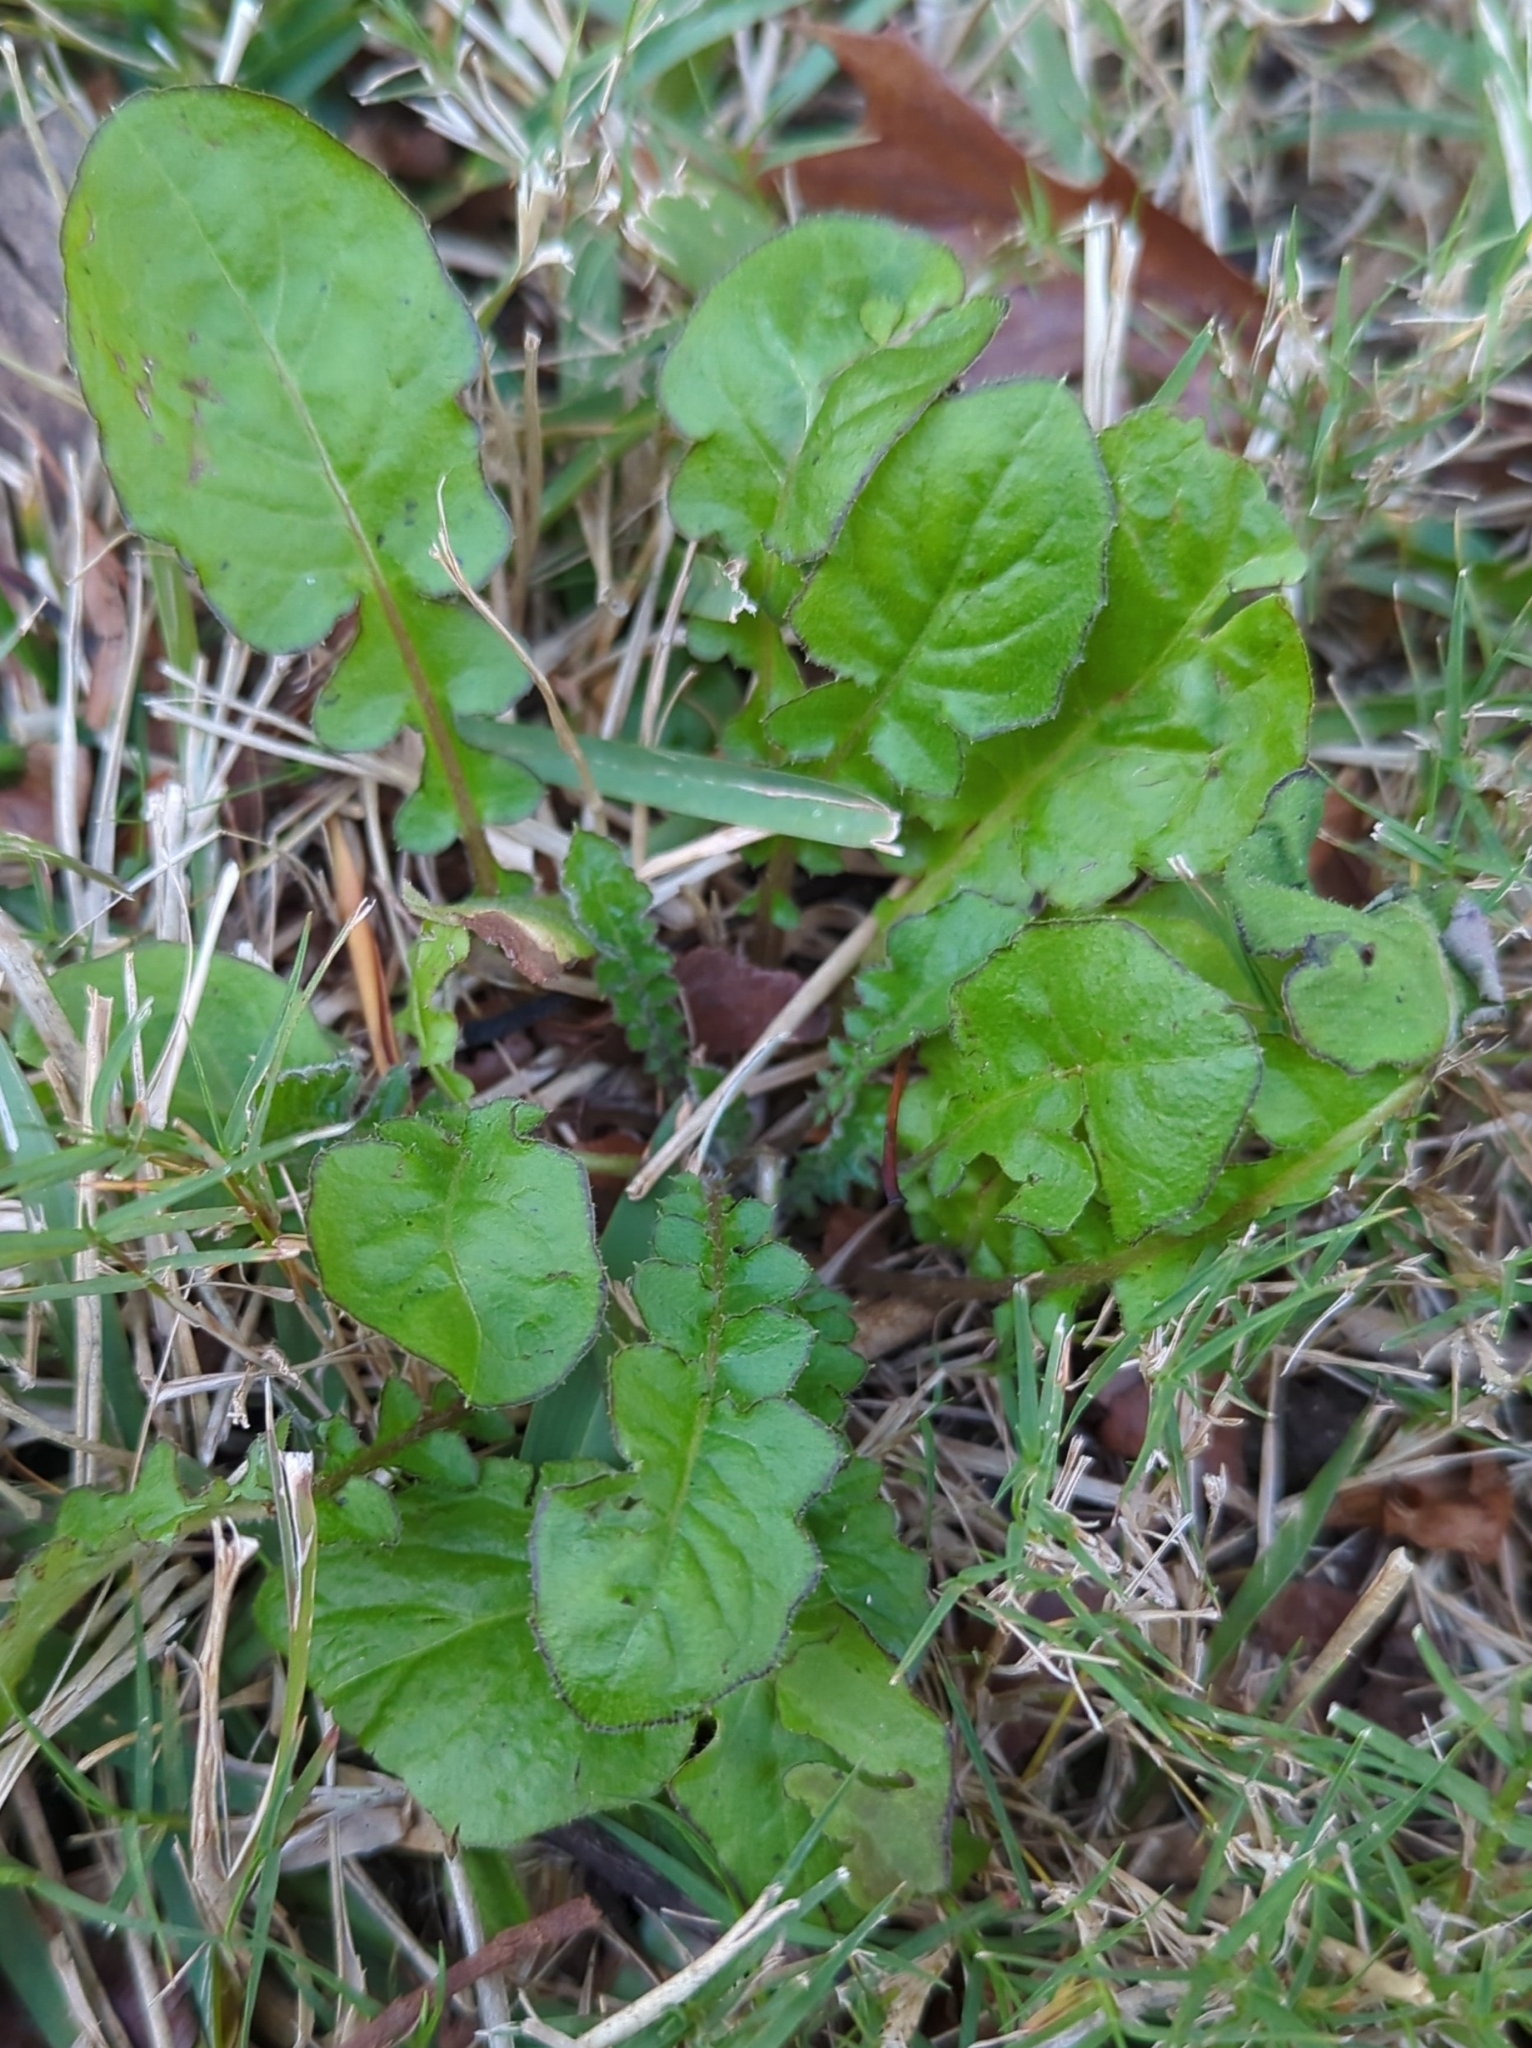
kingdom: Plantae
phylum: Tracheophyta
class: Magnoliopsida
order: Asterales
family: Asteraceae
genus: Youngia
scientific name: Youngia japonica
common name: Oriental false hawksbeard
